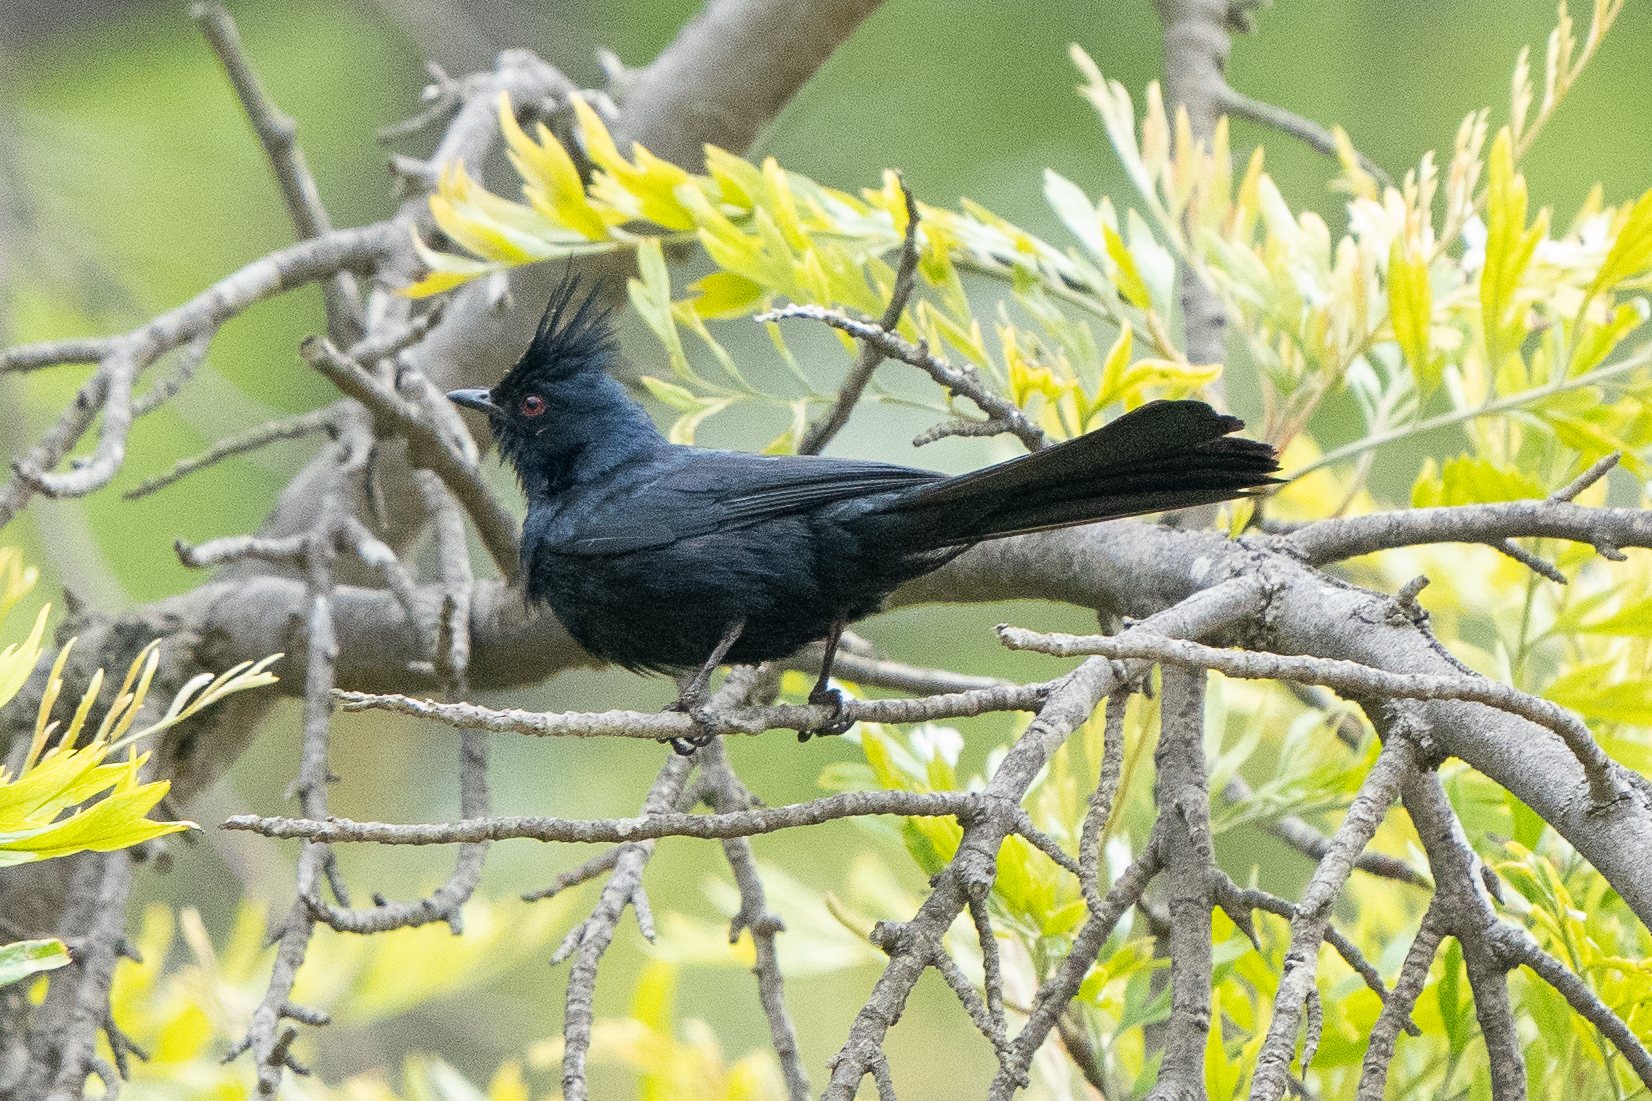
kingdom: Animalia
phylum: Chordata
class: Aves
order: Passeriformes
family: Ptilogonatidae
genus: Phainopepla
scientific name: Phainopepla nitens
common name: Phainopepla
